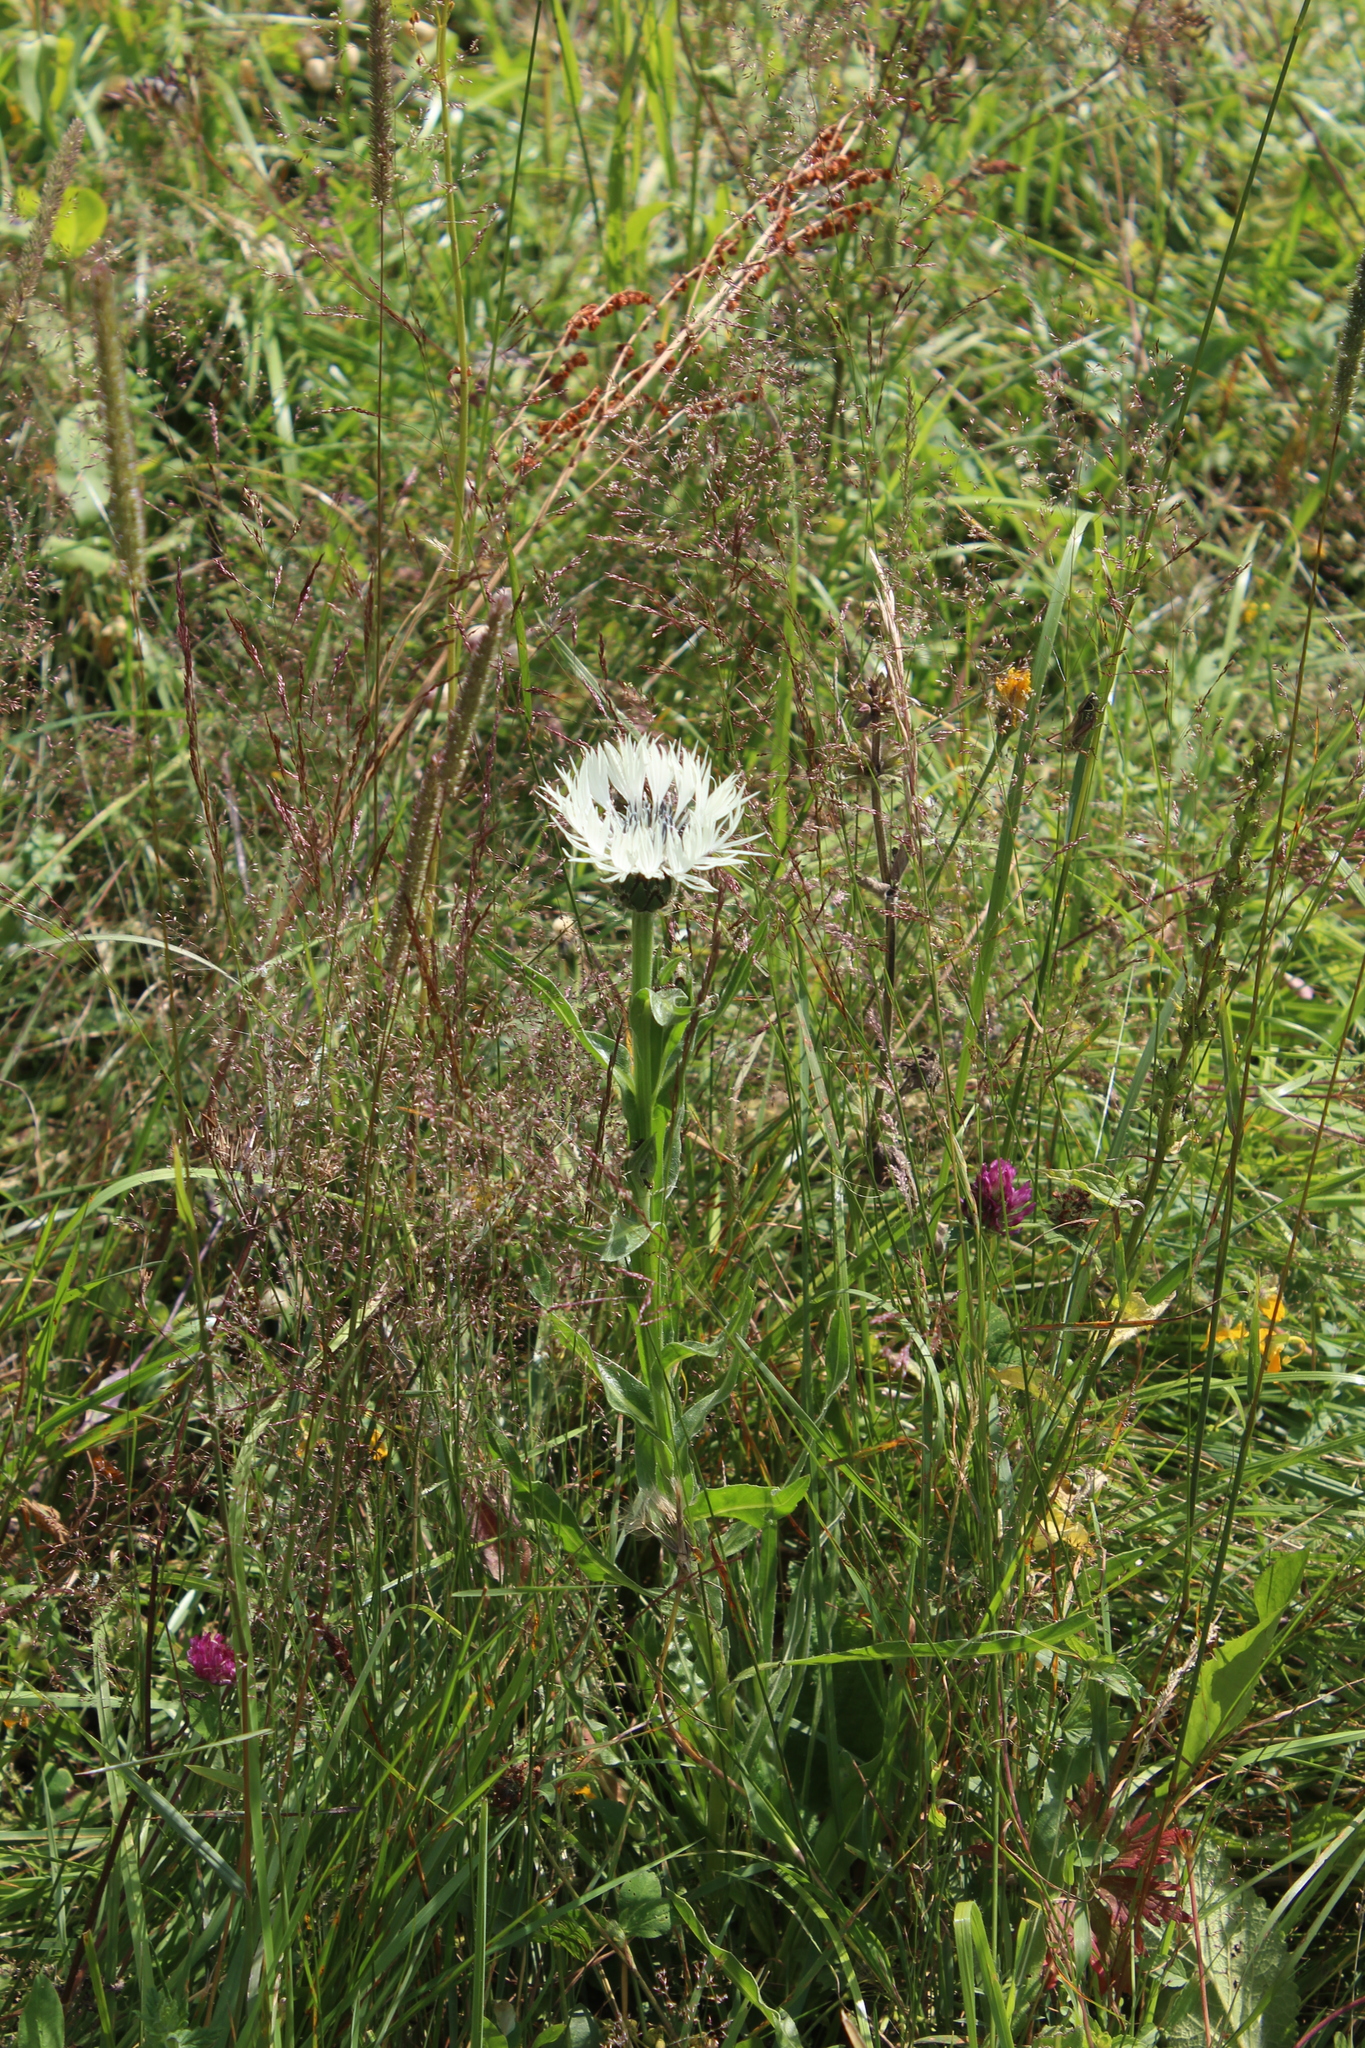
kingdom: Plantae
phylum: Tracheophyta
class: Magnoliopsida
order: Asterales
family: Asteraceae
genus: Centaurea
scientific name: Centaurea cheiranthifolia
